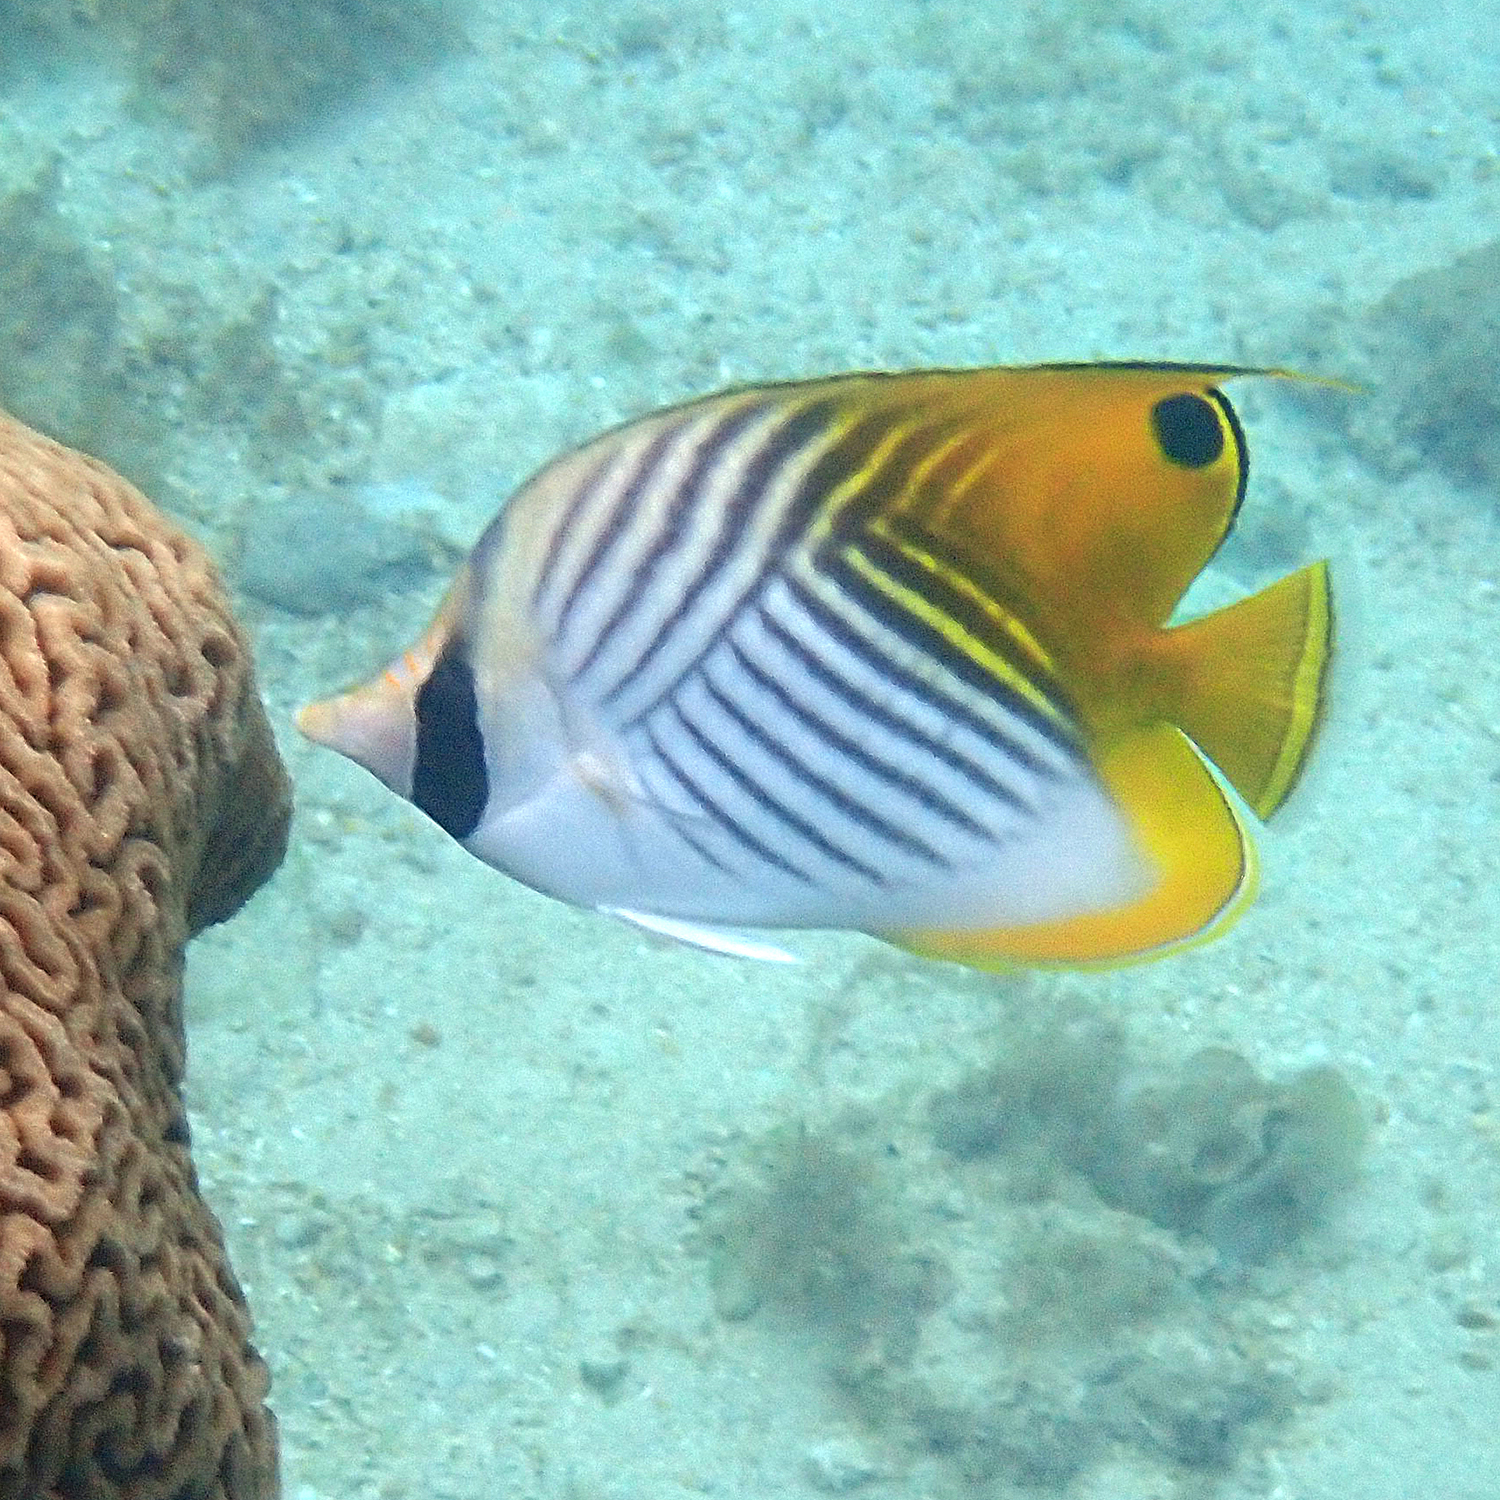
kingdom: Animalia
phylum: Chordata
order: Perciformes
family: Chaetodontidae
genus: Chaetodon
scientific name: Chaetodon auriga
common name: Threadfin butterflyfish
